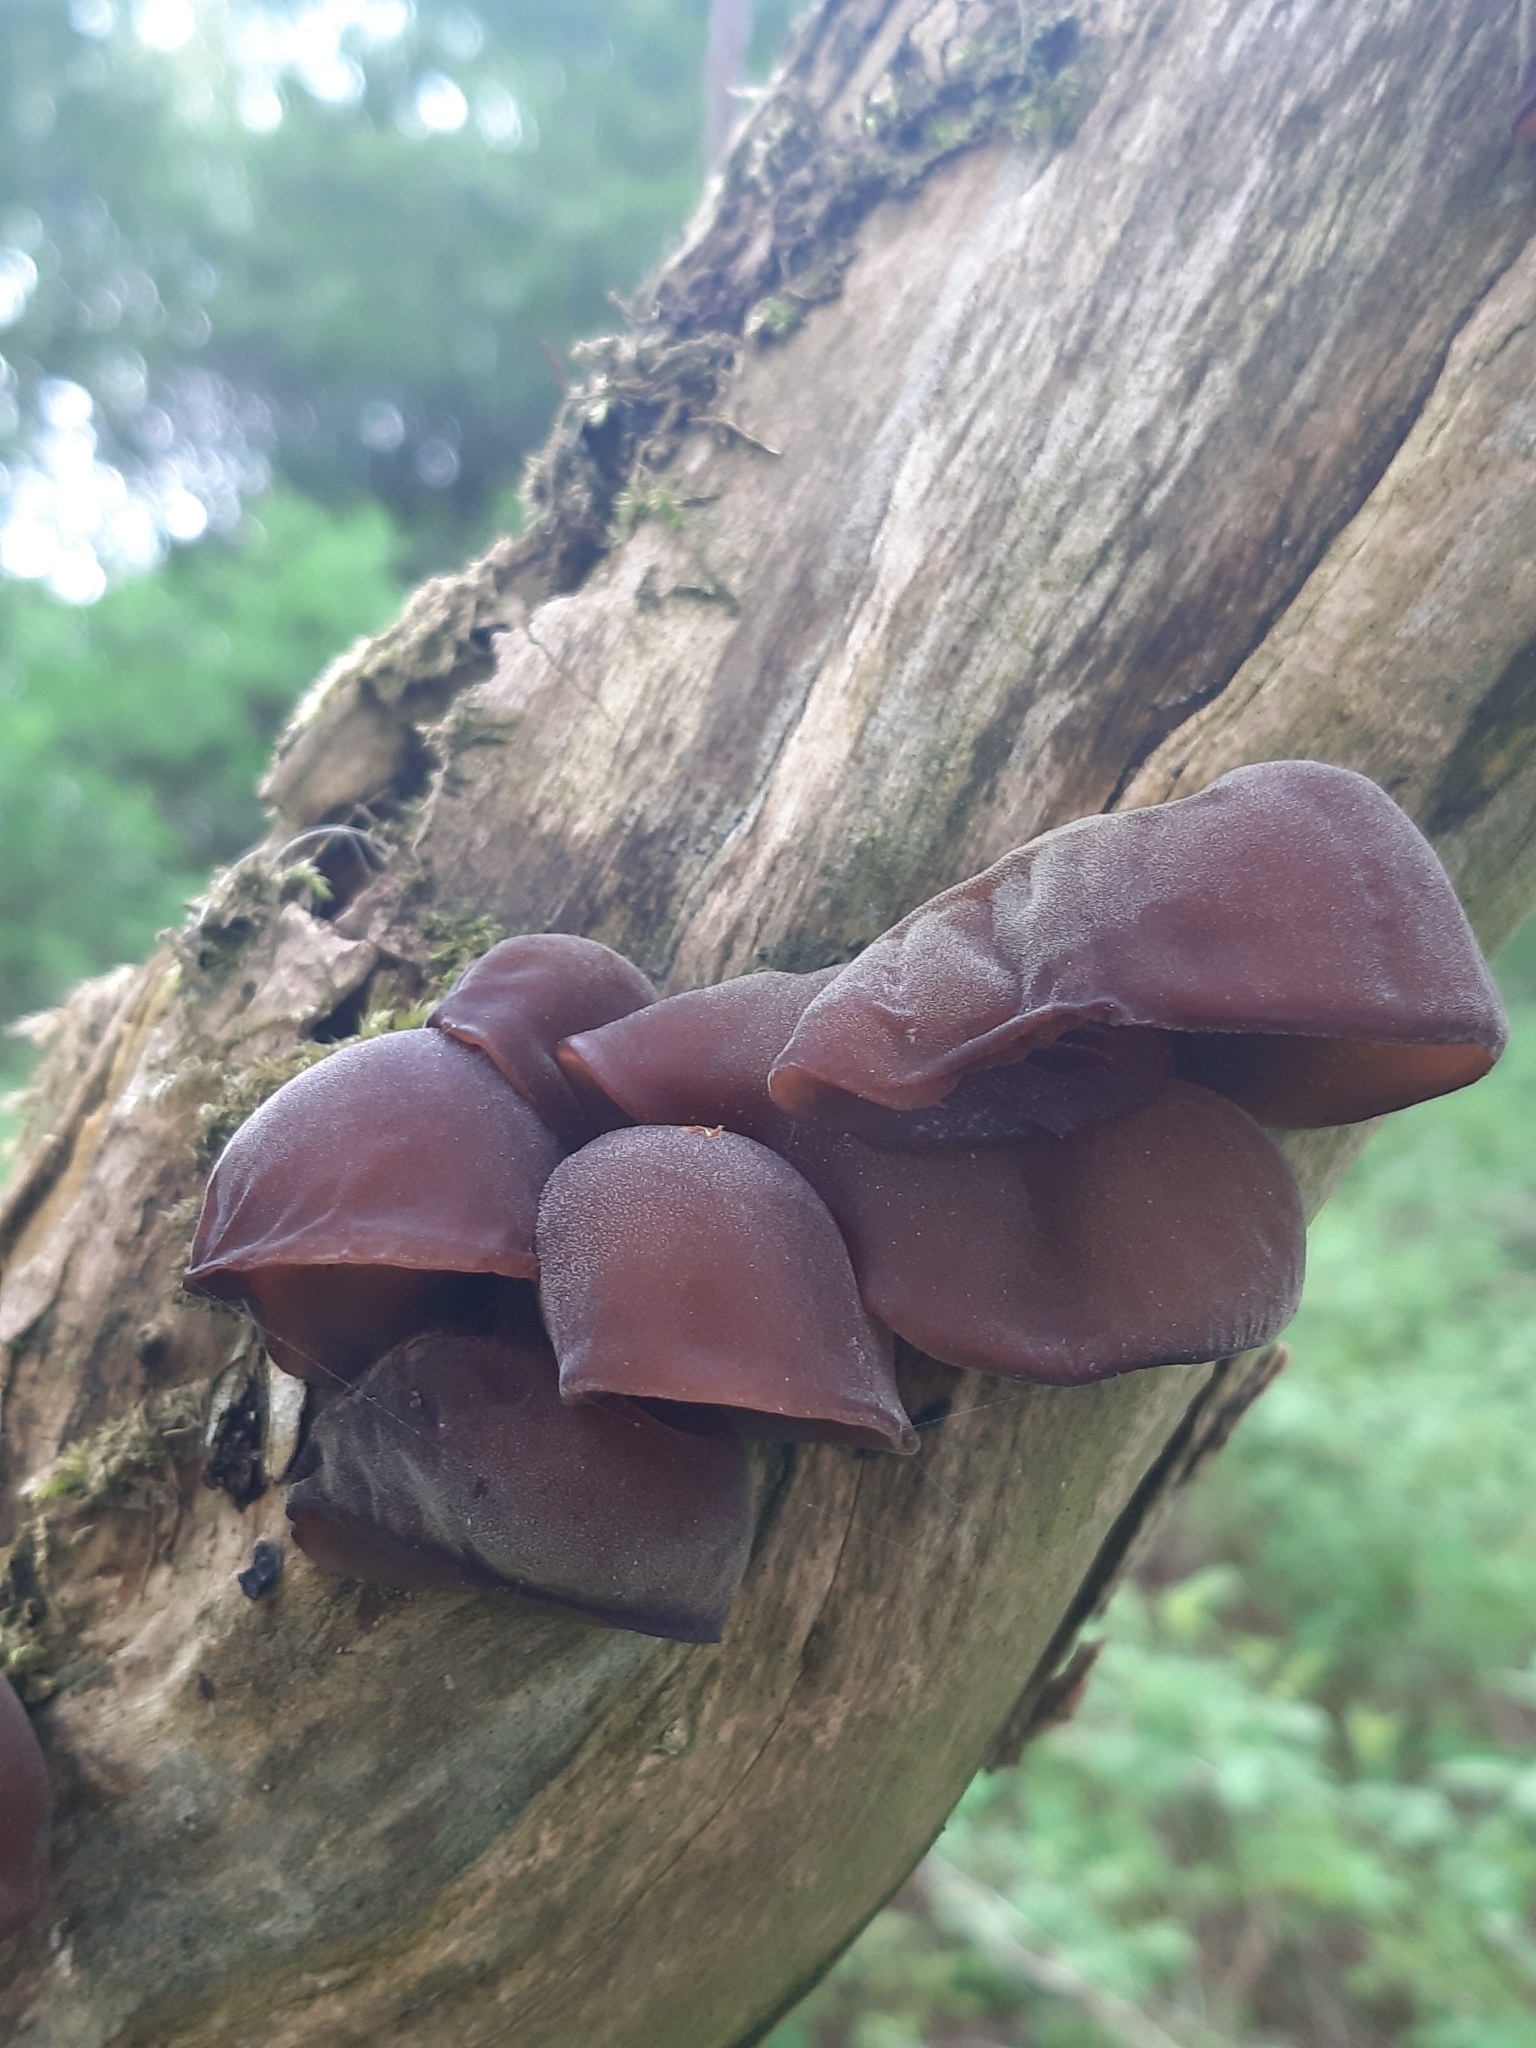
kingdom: Fungi
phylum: Basidiomycota
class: Agaricomycetes
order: Auriculariales
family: Auriculariaceae
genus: Auricularia
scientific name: Auricularia auricula-judae
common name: Jelly ear
